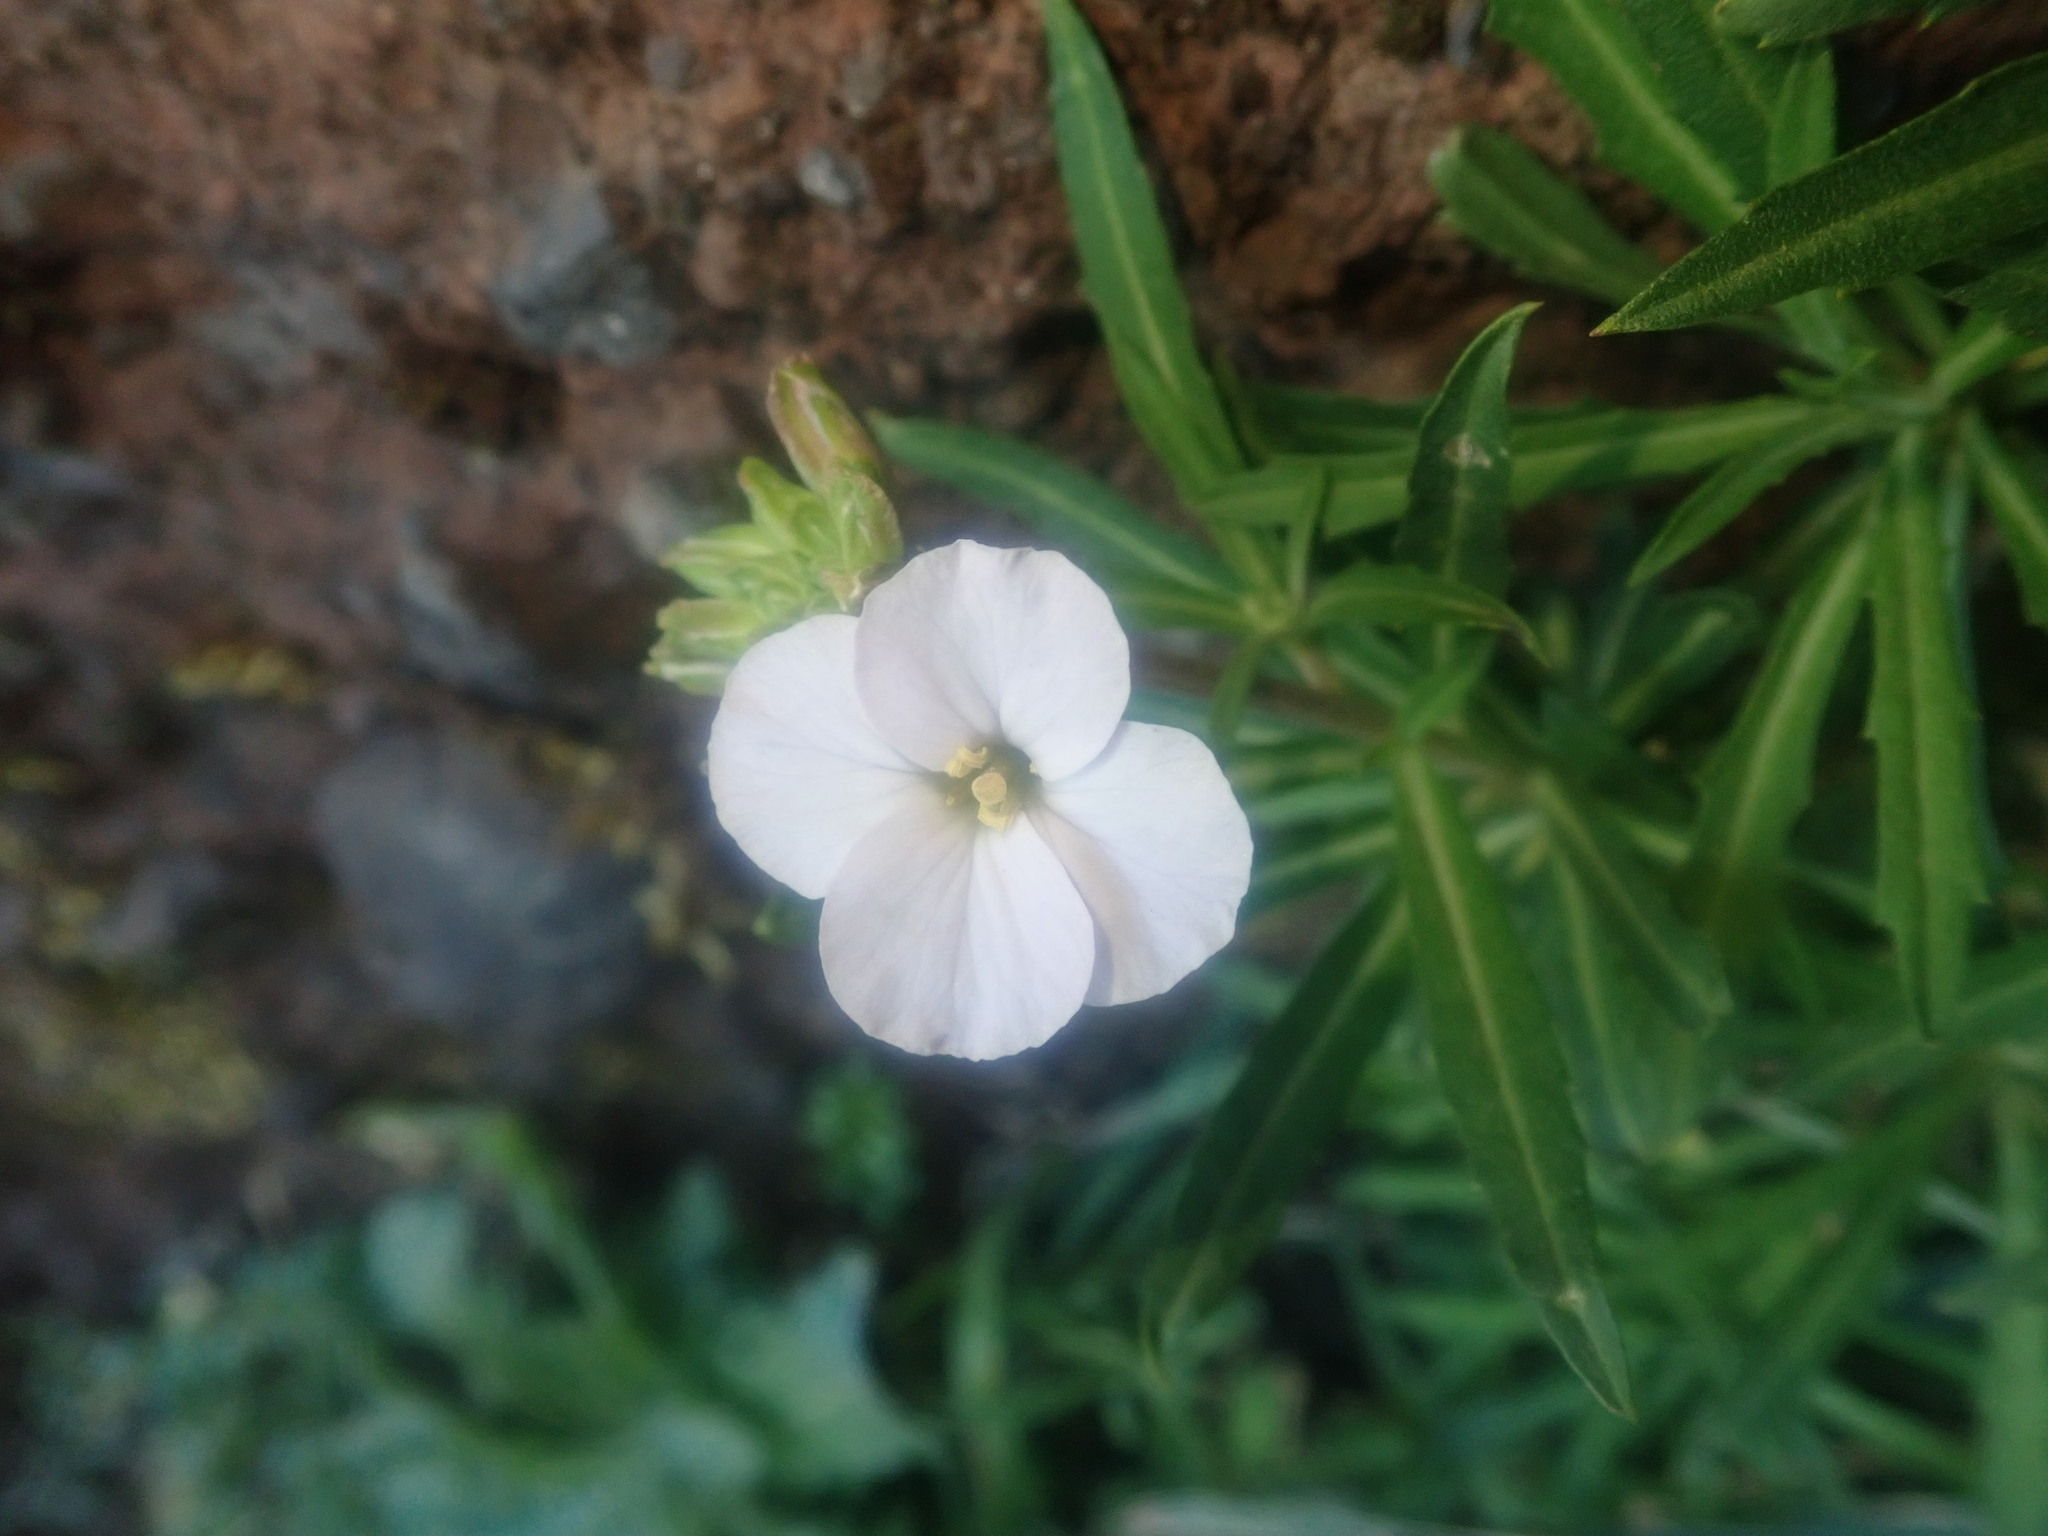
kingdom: Plantae
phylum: Tracheophyta
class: Magnoliopsida
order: Brassicales
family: Brassicaceae
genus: Erysimum
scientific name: Erysimum bicolor
